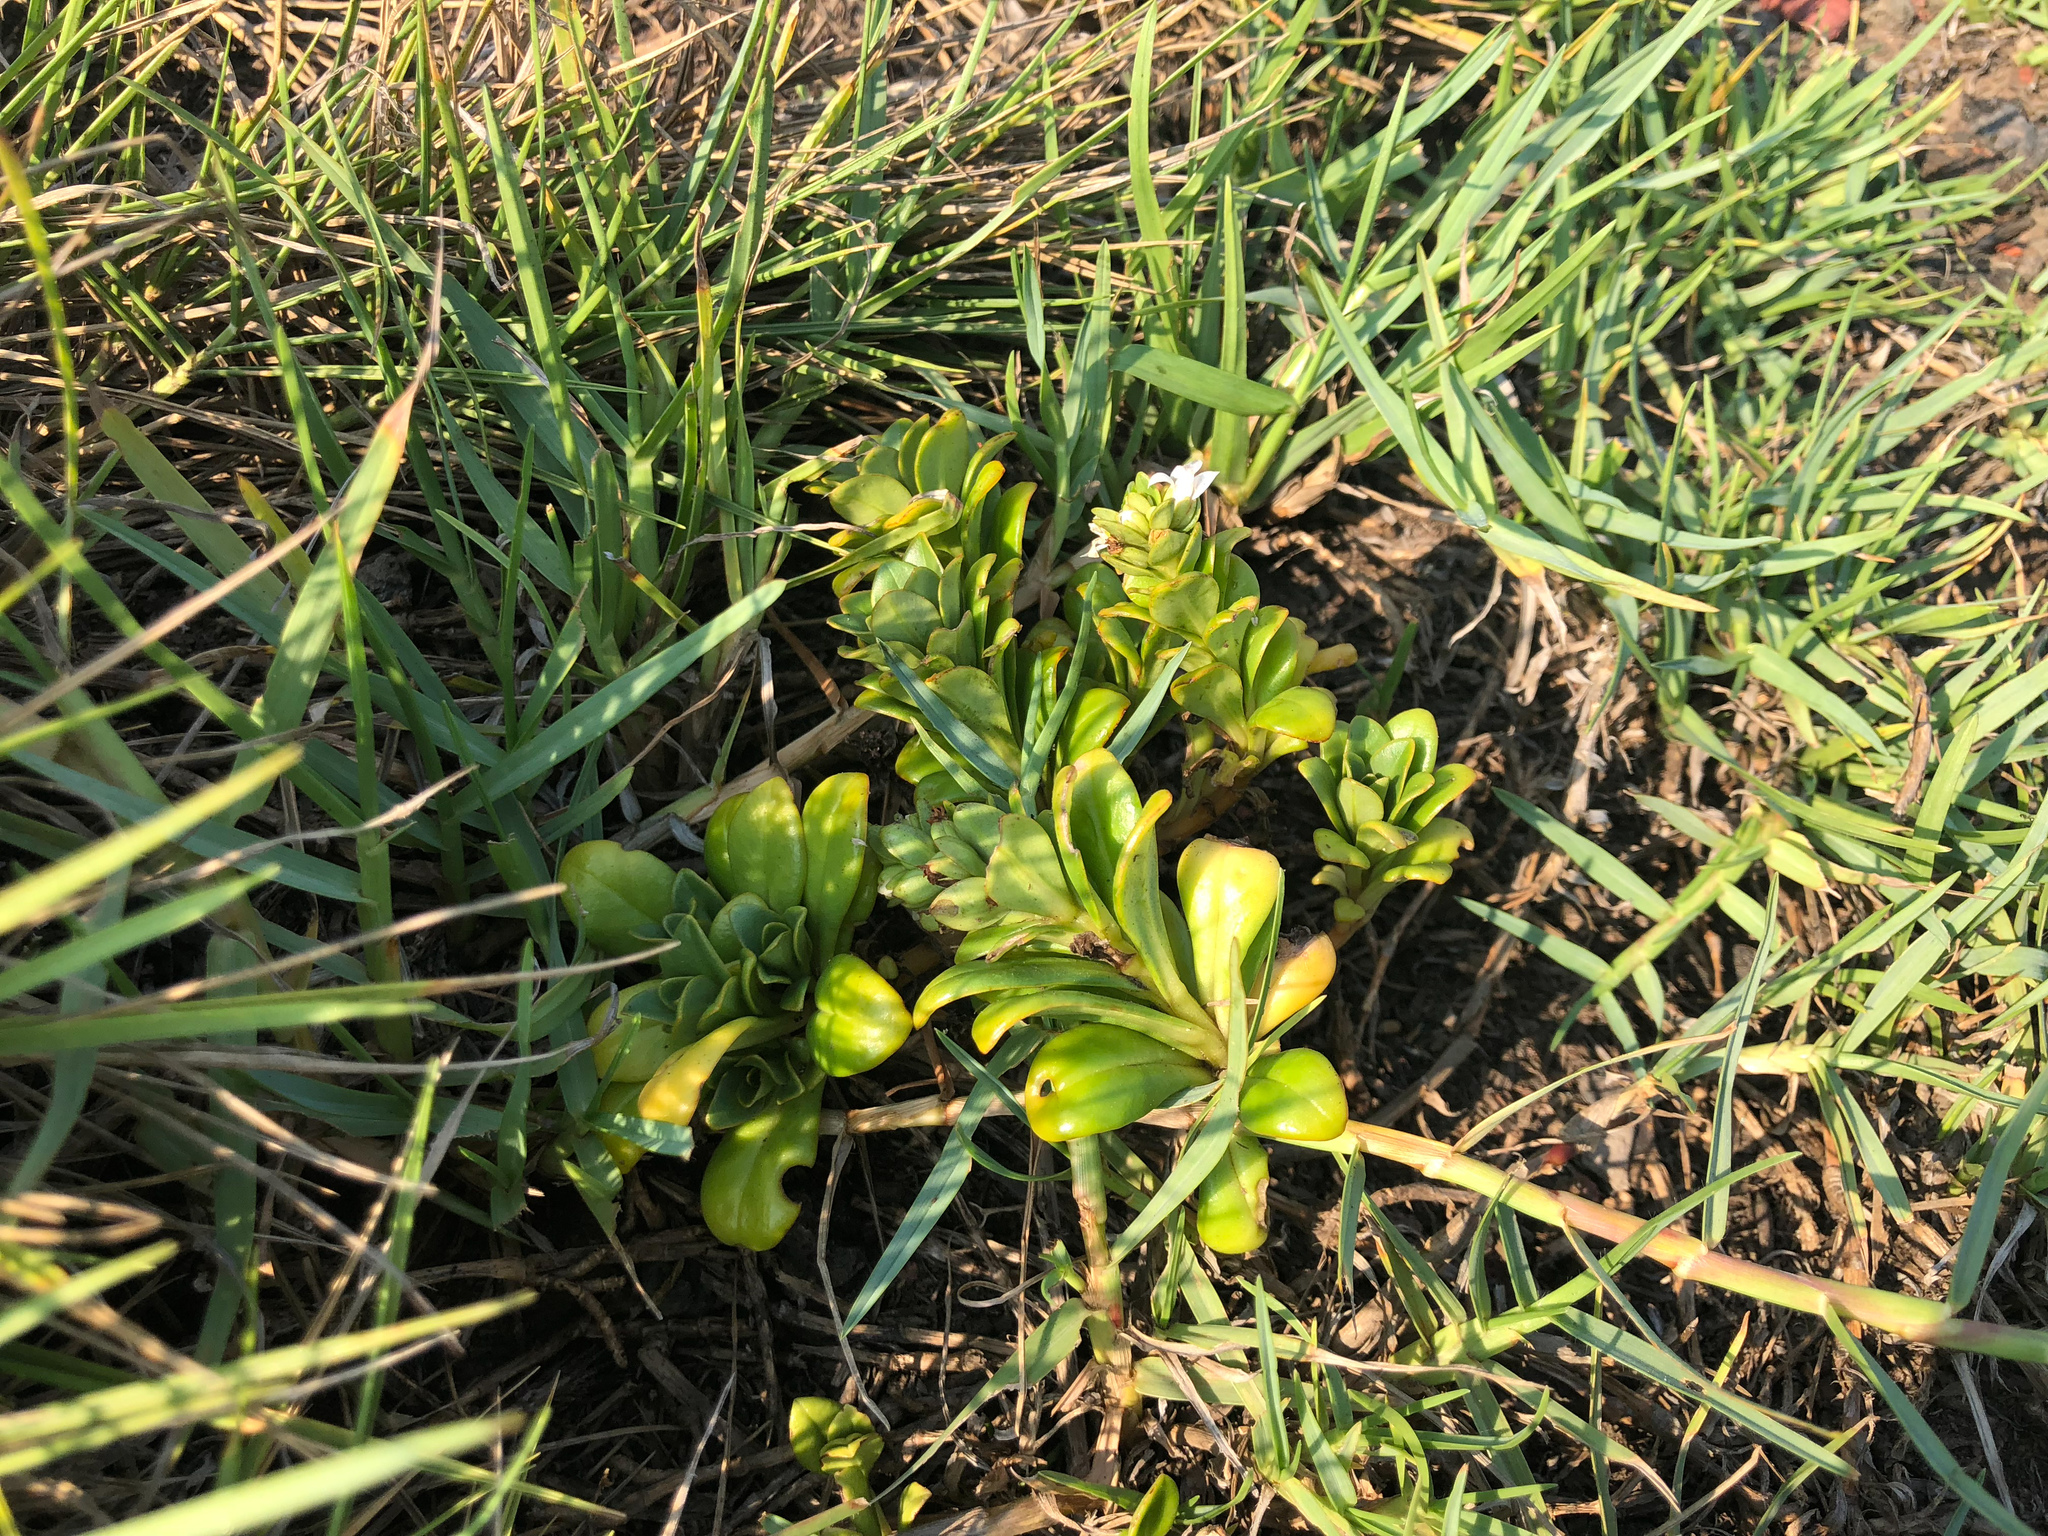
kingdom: Plantae
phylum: Tracheophyta
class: Magnoliopsida
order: Ericales
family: Primulaceae
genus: Lysimachia
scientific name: Lysimachia mauritiana
